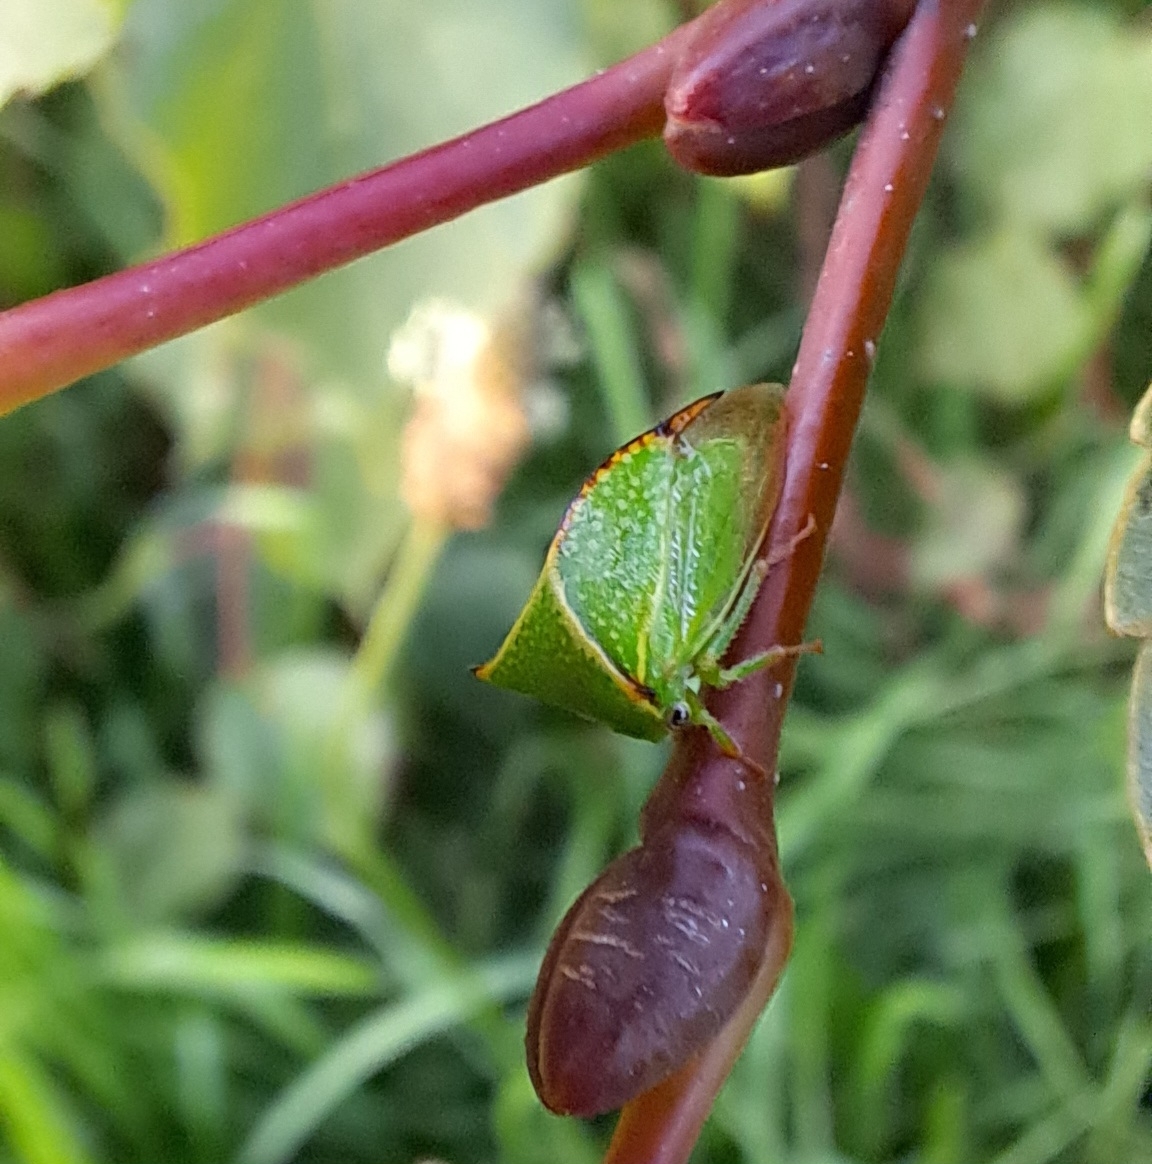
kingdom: Animalia
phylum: Arthropoda
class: Insecta
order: Hemiptera
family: Membracidae
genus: Stictocephala
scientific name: Stictocephala bisonia
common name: American buffalo treehopper
